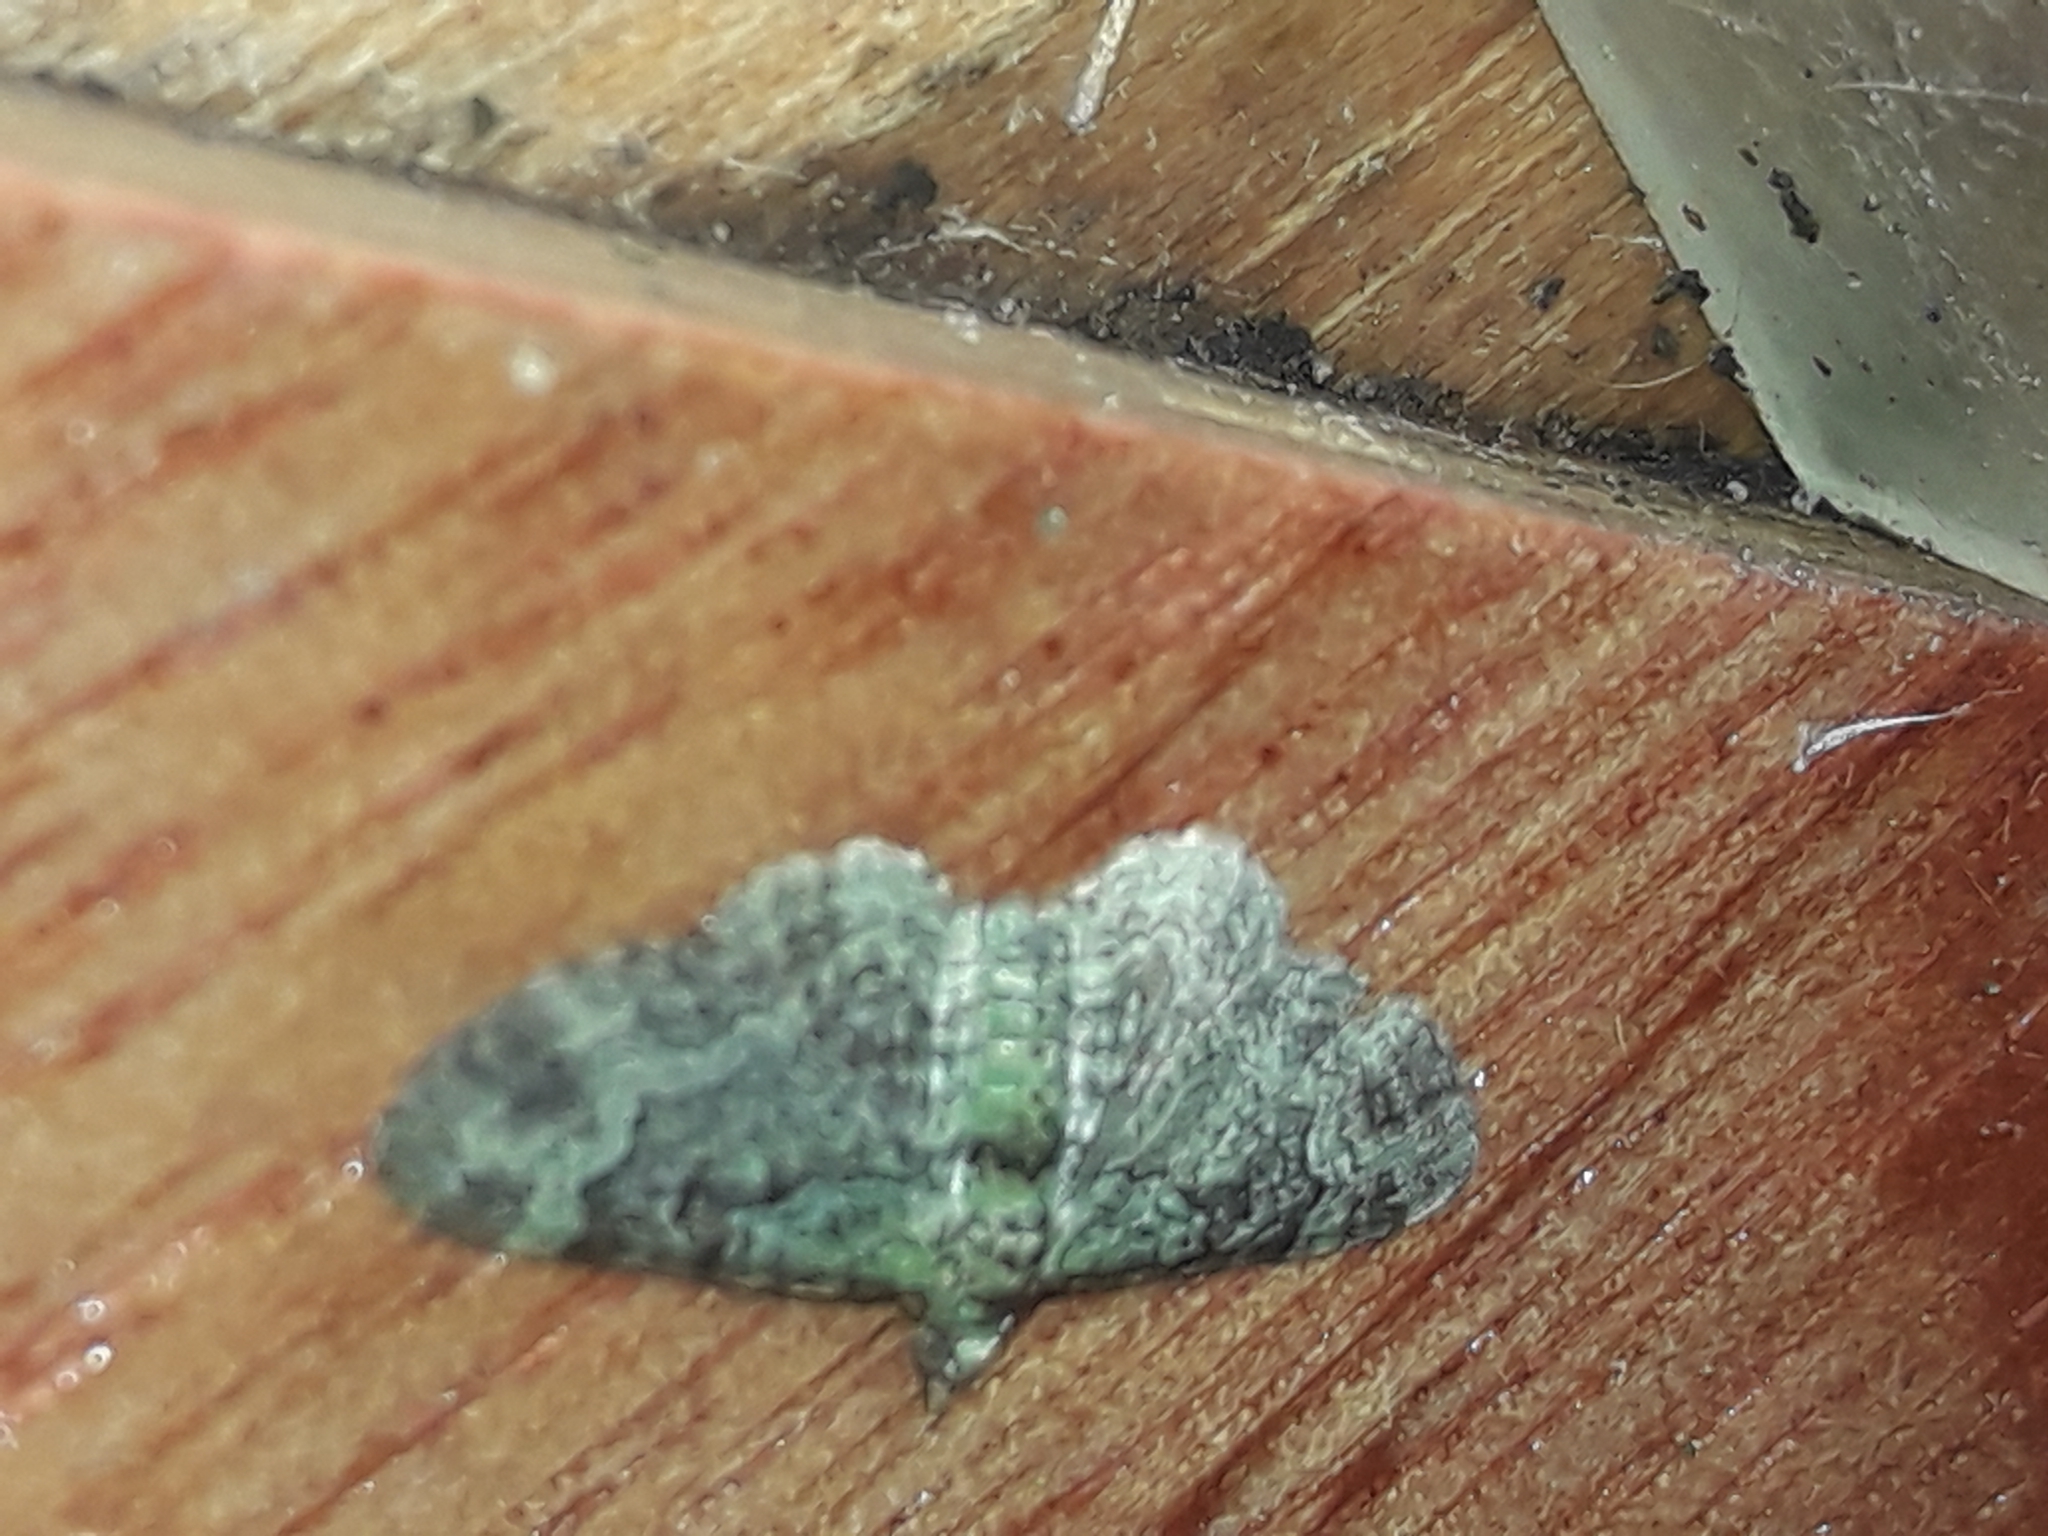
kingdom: Animalia
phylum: Arthropoda
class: Insecta
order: Lepidoptera
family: Geometridae
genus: Pasiphila
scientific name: Pasiphila rectangulata
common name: Green pug
